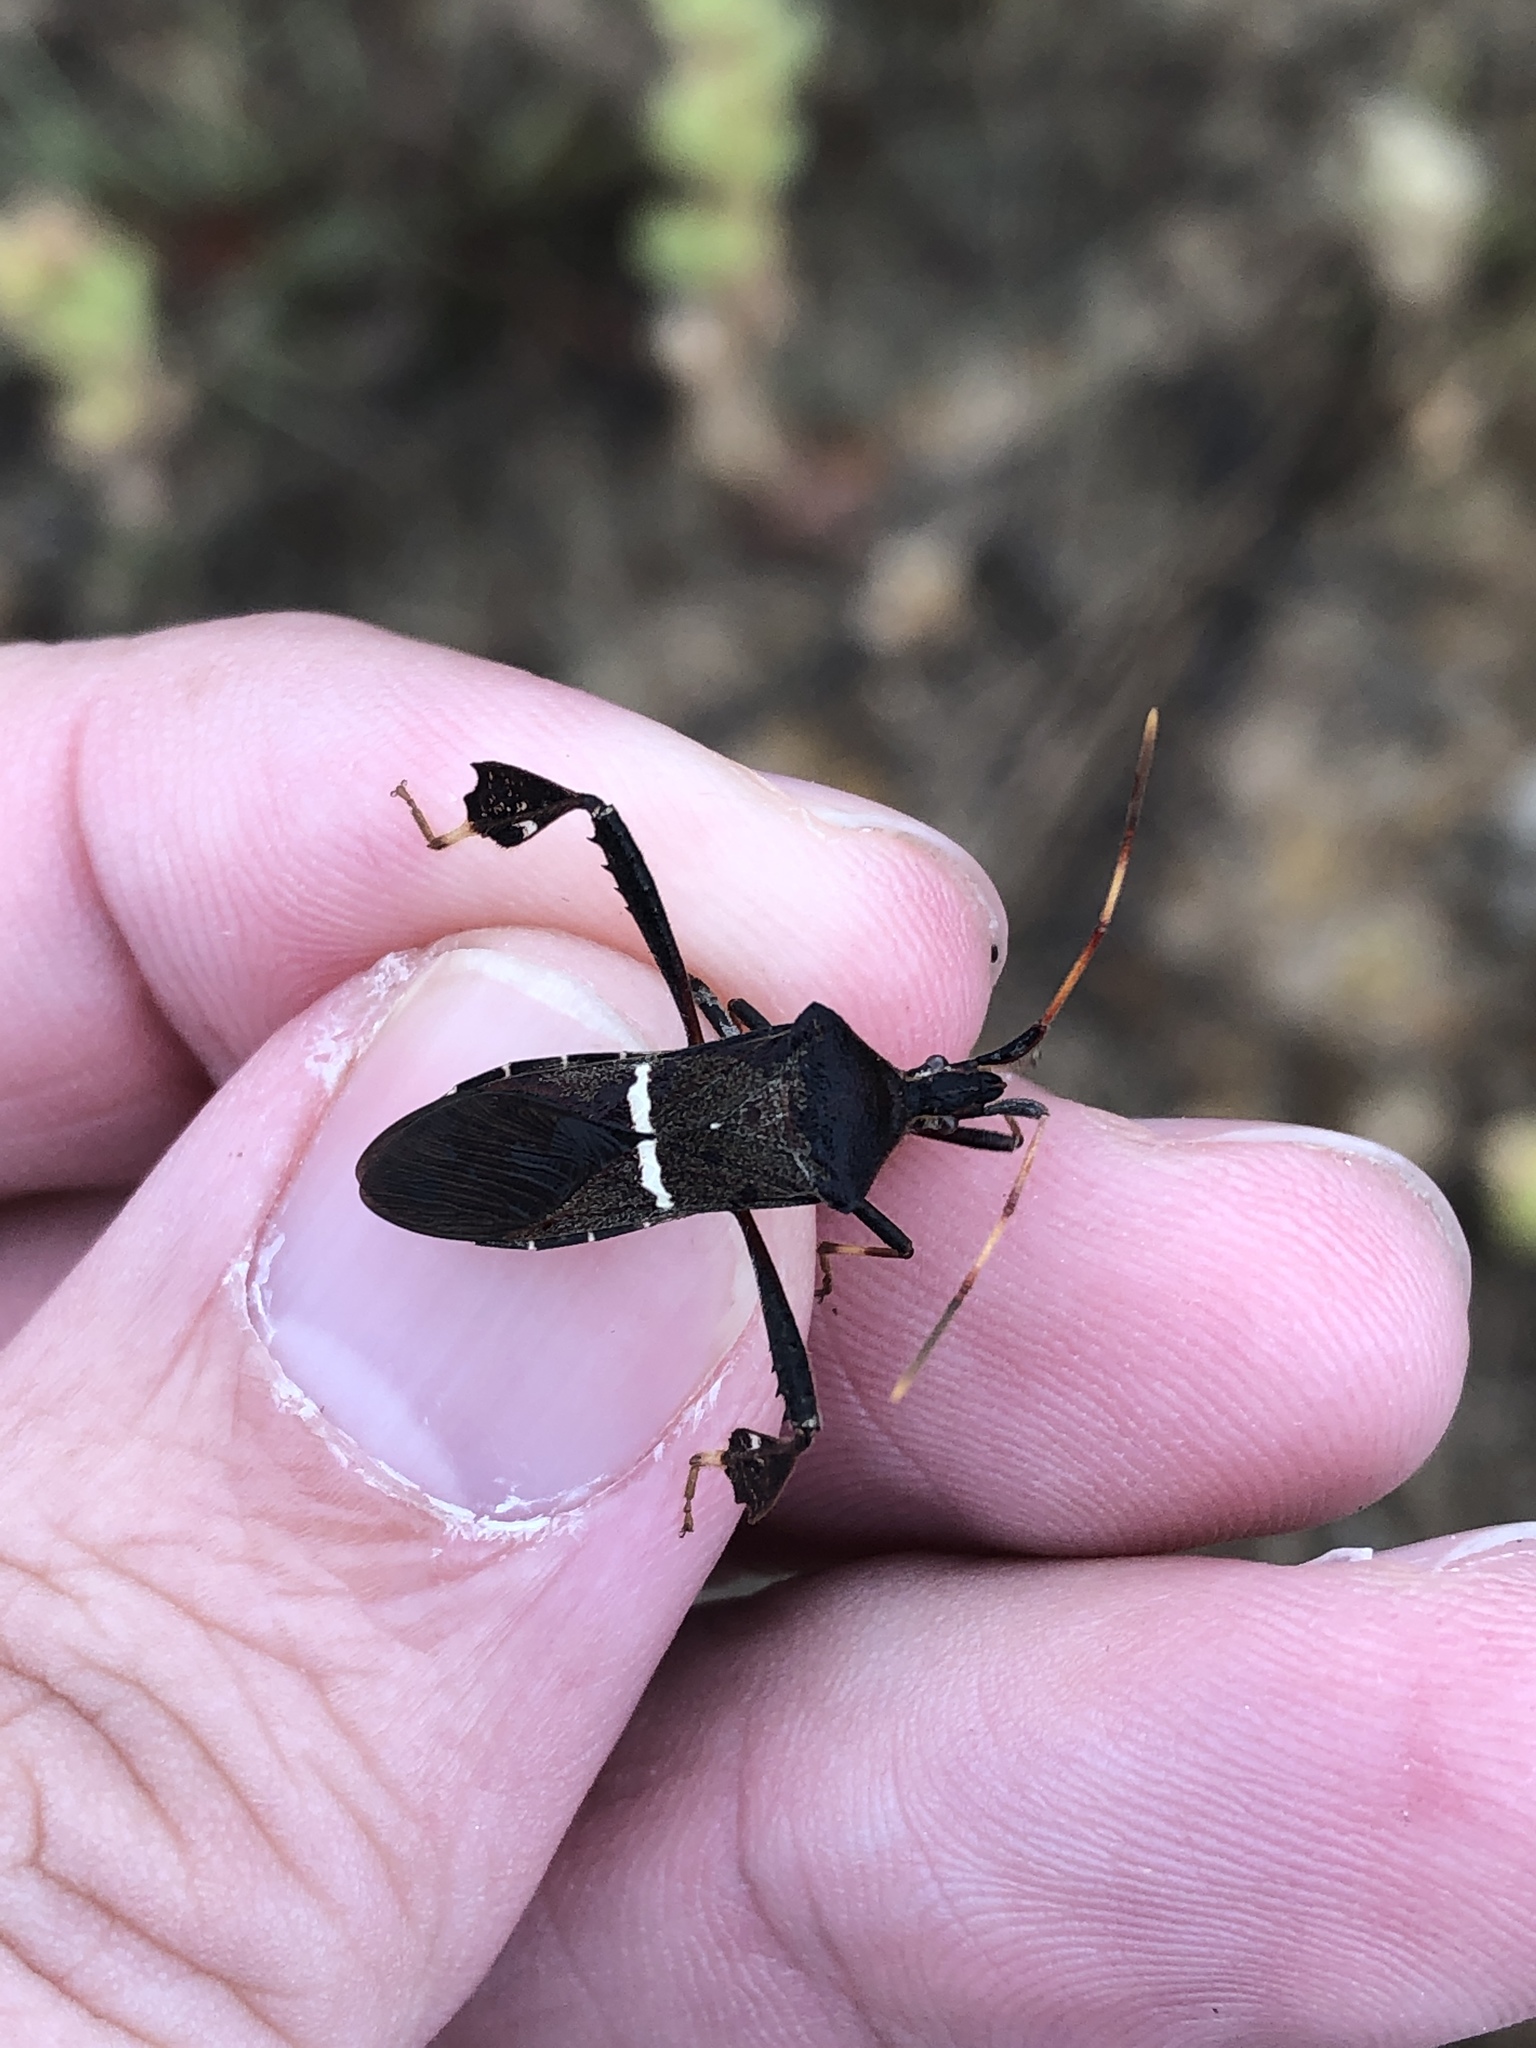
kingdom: Animalia
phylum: Arthropoda
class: Insecta
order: Hemiptera
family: Coreidae
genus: Leptoglossus
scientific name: Leptoglossus phyllopus
